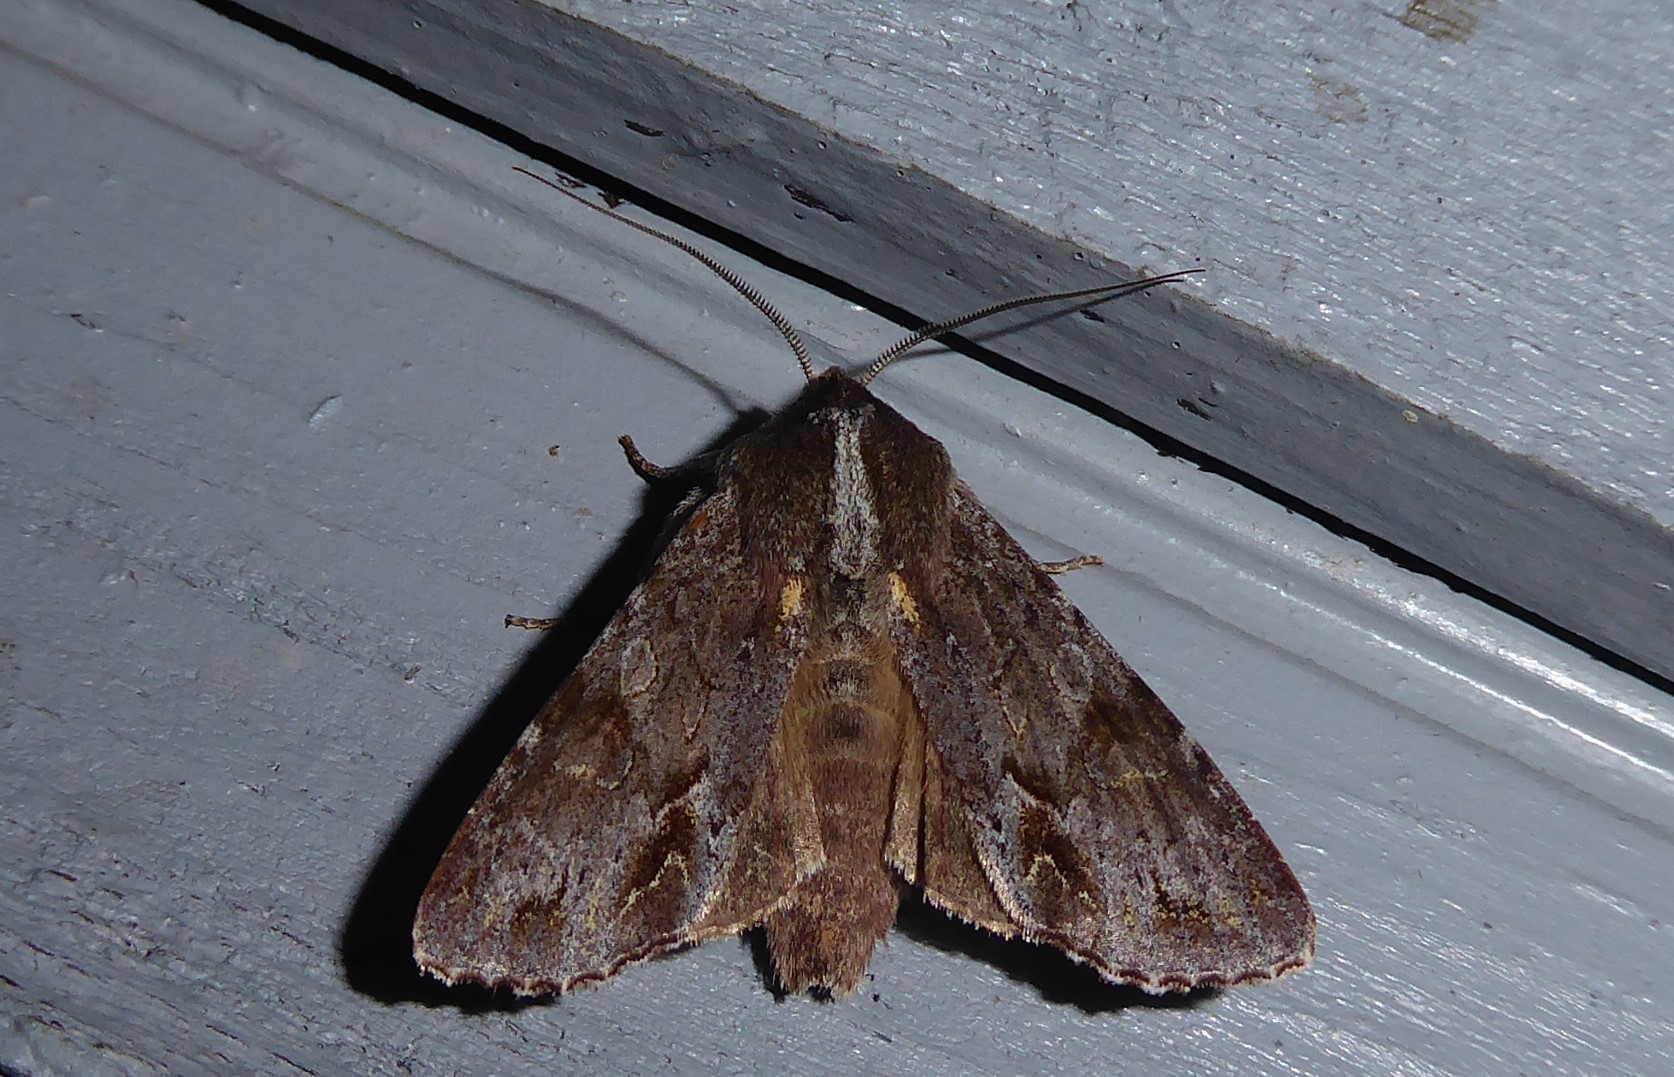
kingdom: Animalia
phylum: Arthropoda
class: Insecta
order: Lepidoptera
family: Noctuidae
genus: Ichneutica
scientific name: Ichneutica
